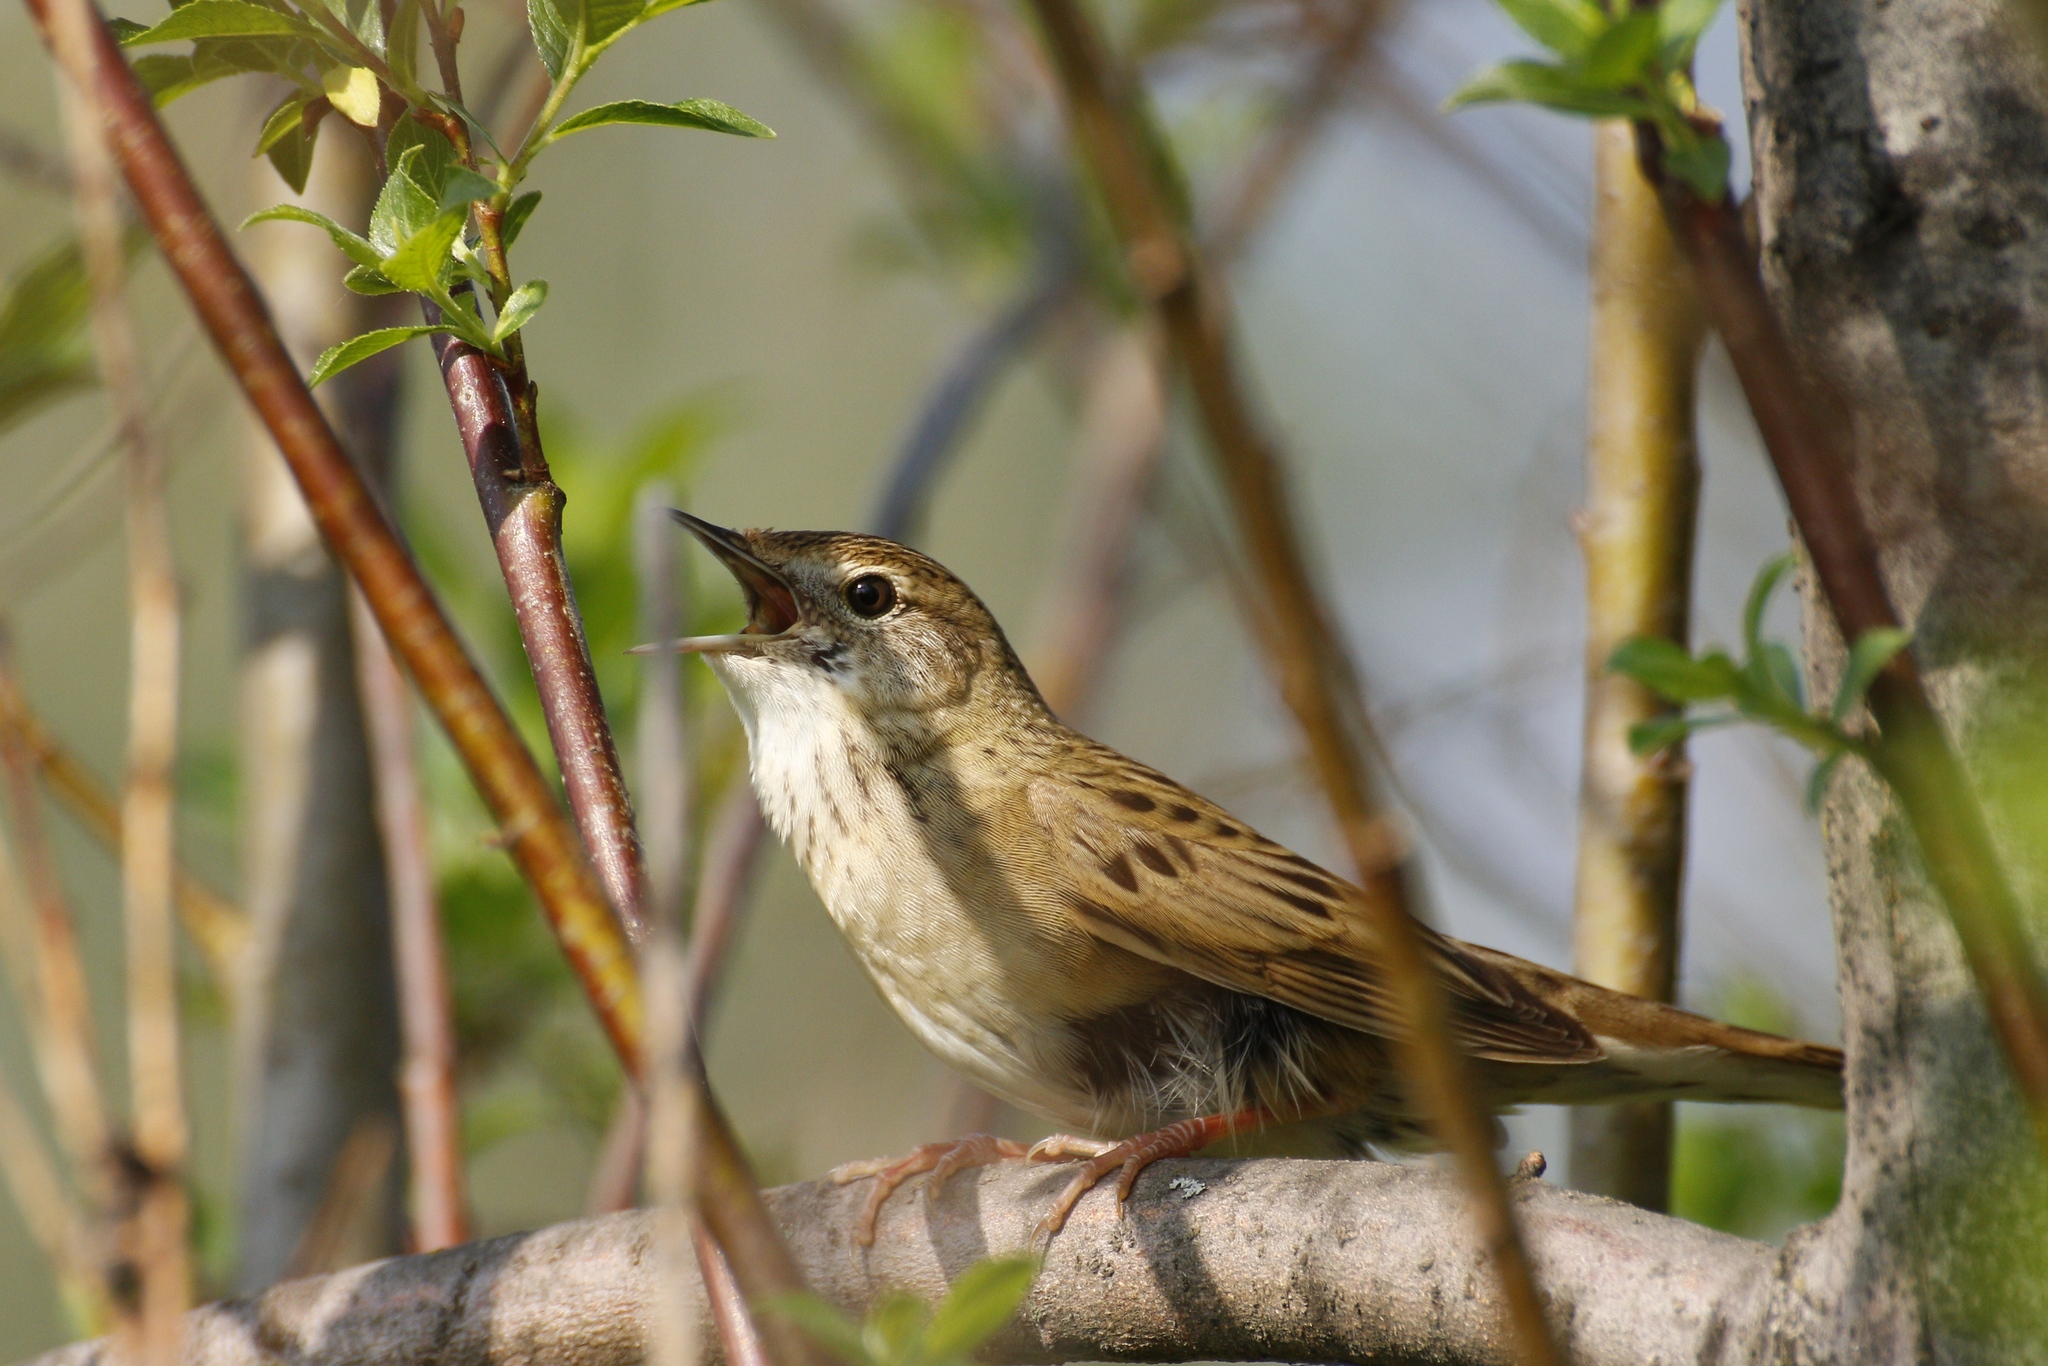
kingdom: Animalia
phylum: Chordata
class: Aves
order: Passeriformes
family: Locustellidae
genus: Locustella
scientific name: Locustella naevia
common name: Common grasshopper warbler
